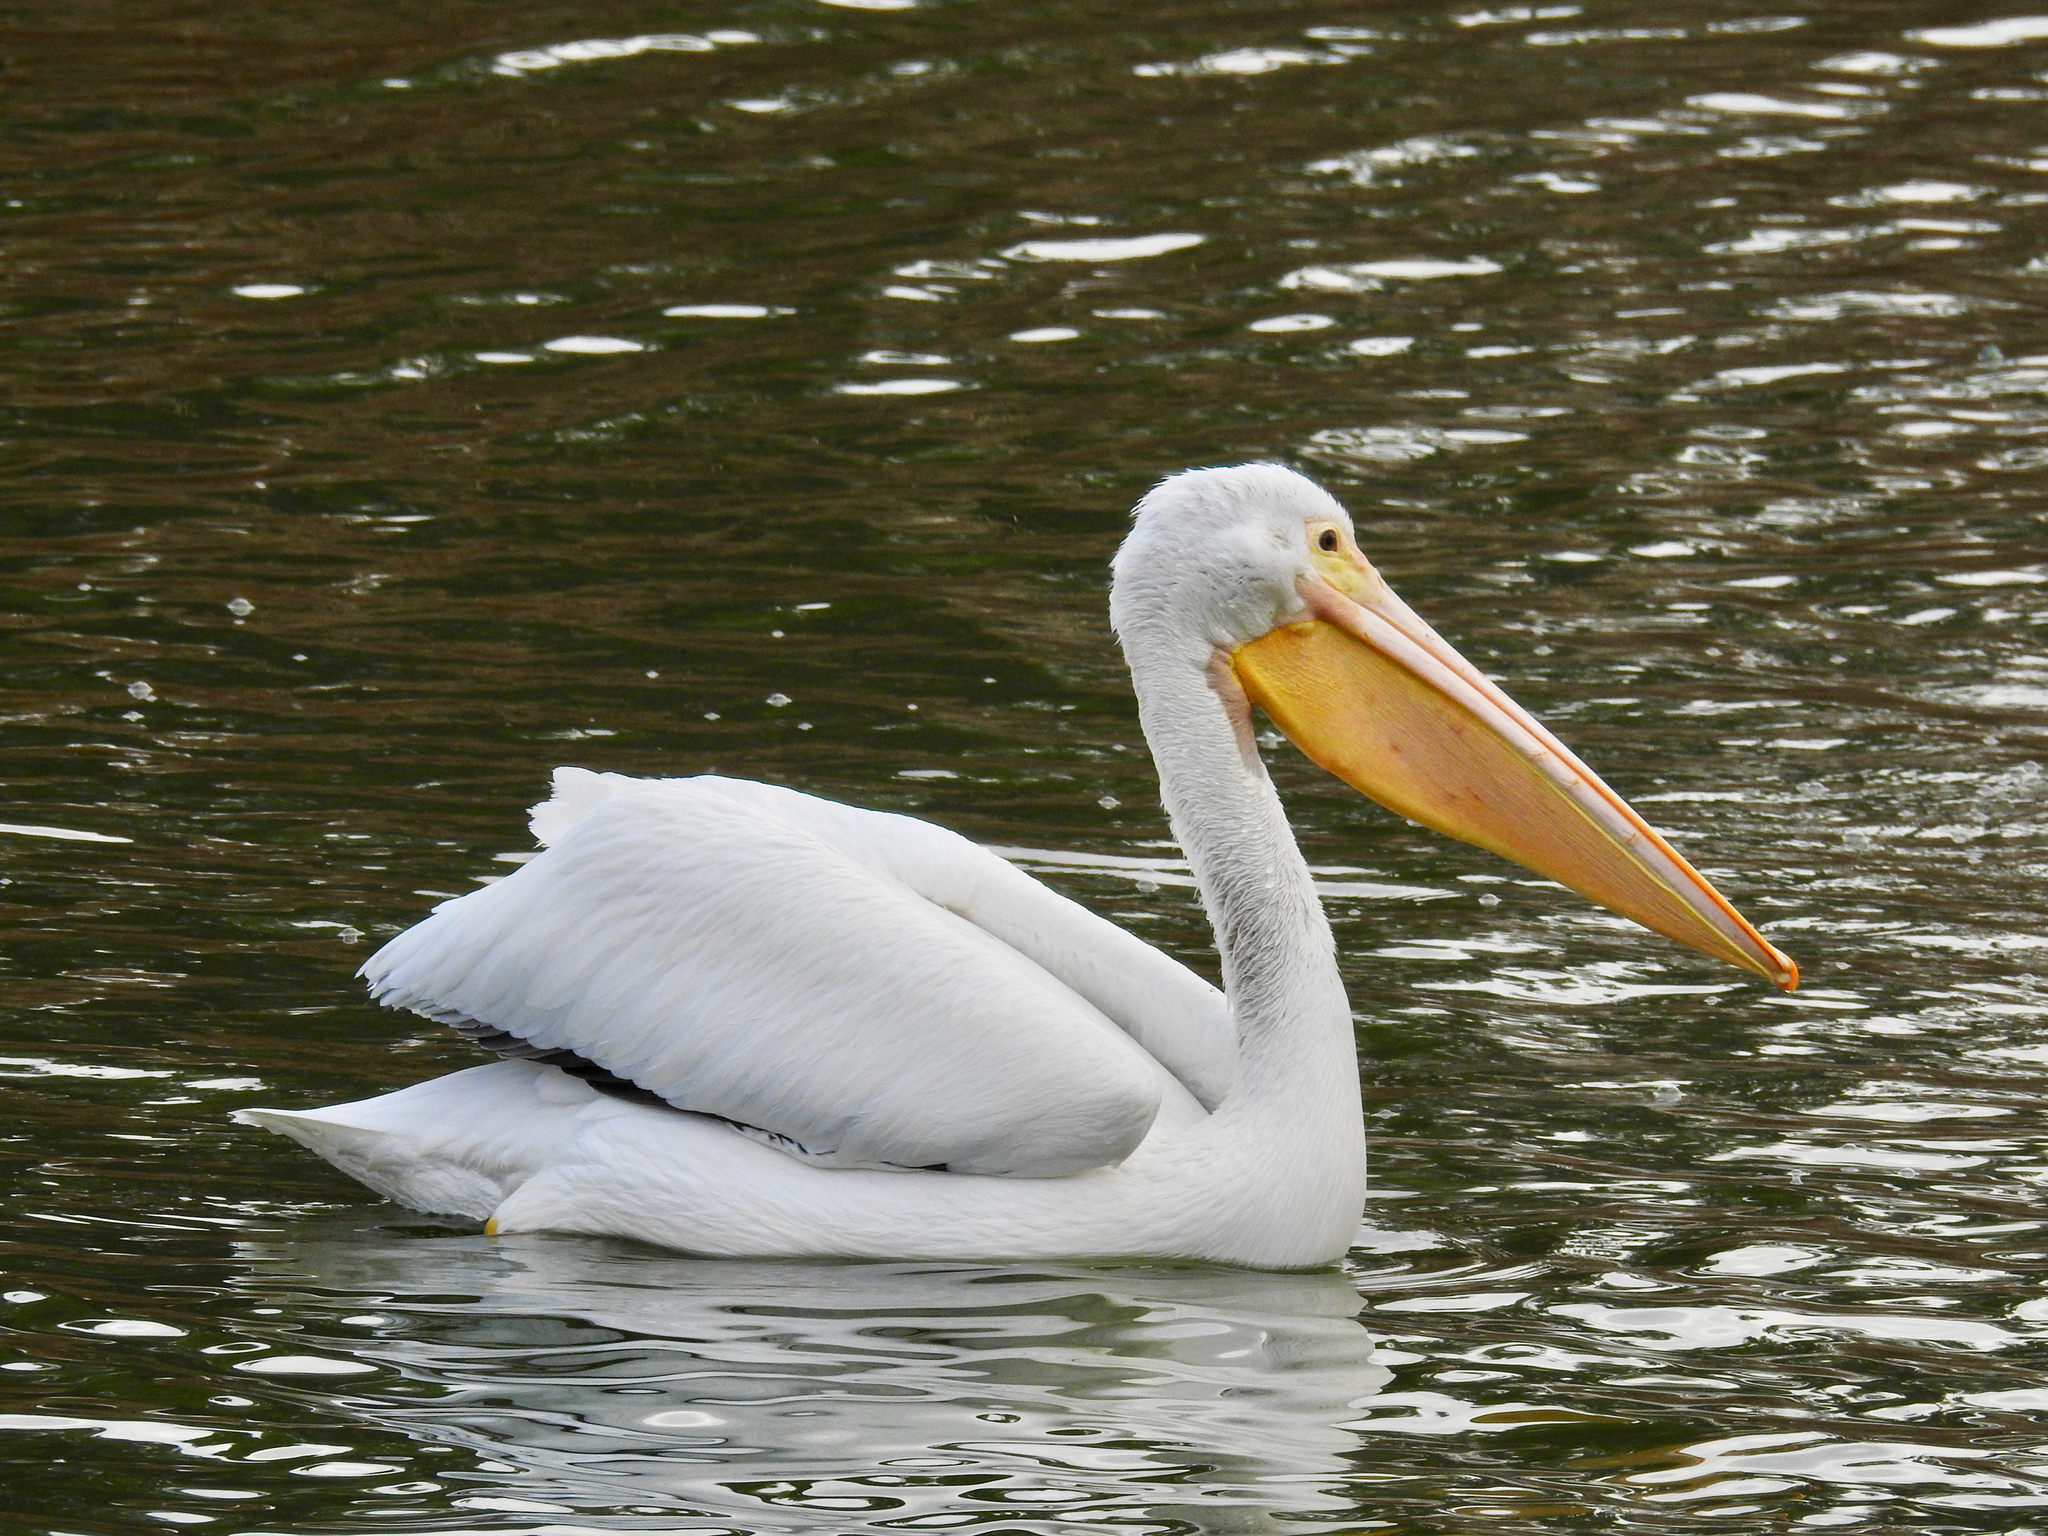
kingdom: Animalia
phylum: Chordata
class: Aves
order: Pelecaniformes
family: Pelecanidae
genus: Pelecanus
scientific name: Pelecanus erythrorhynchos
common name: American white pelican
